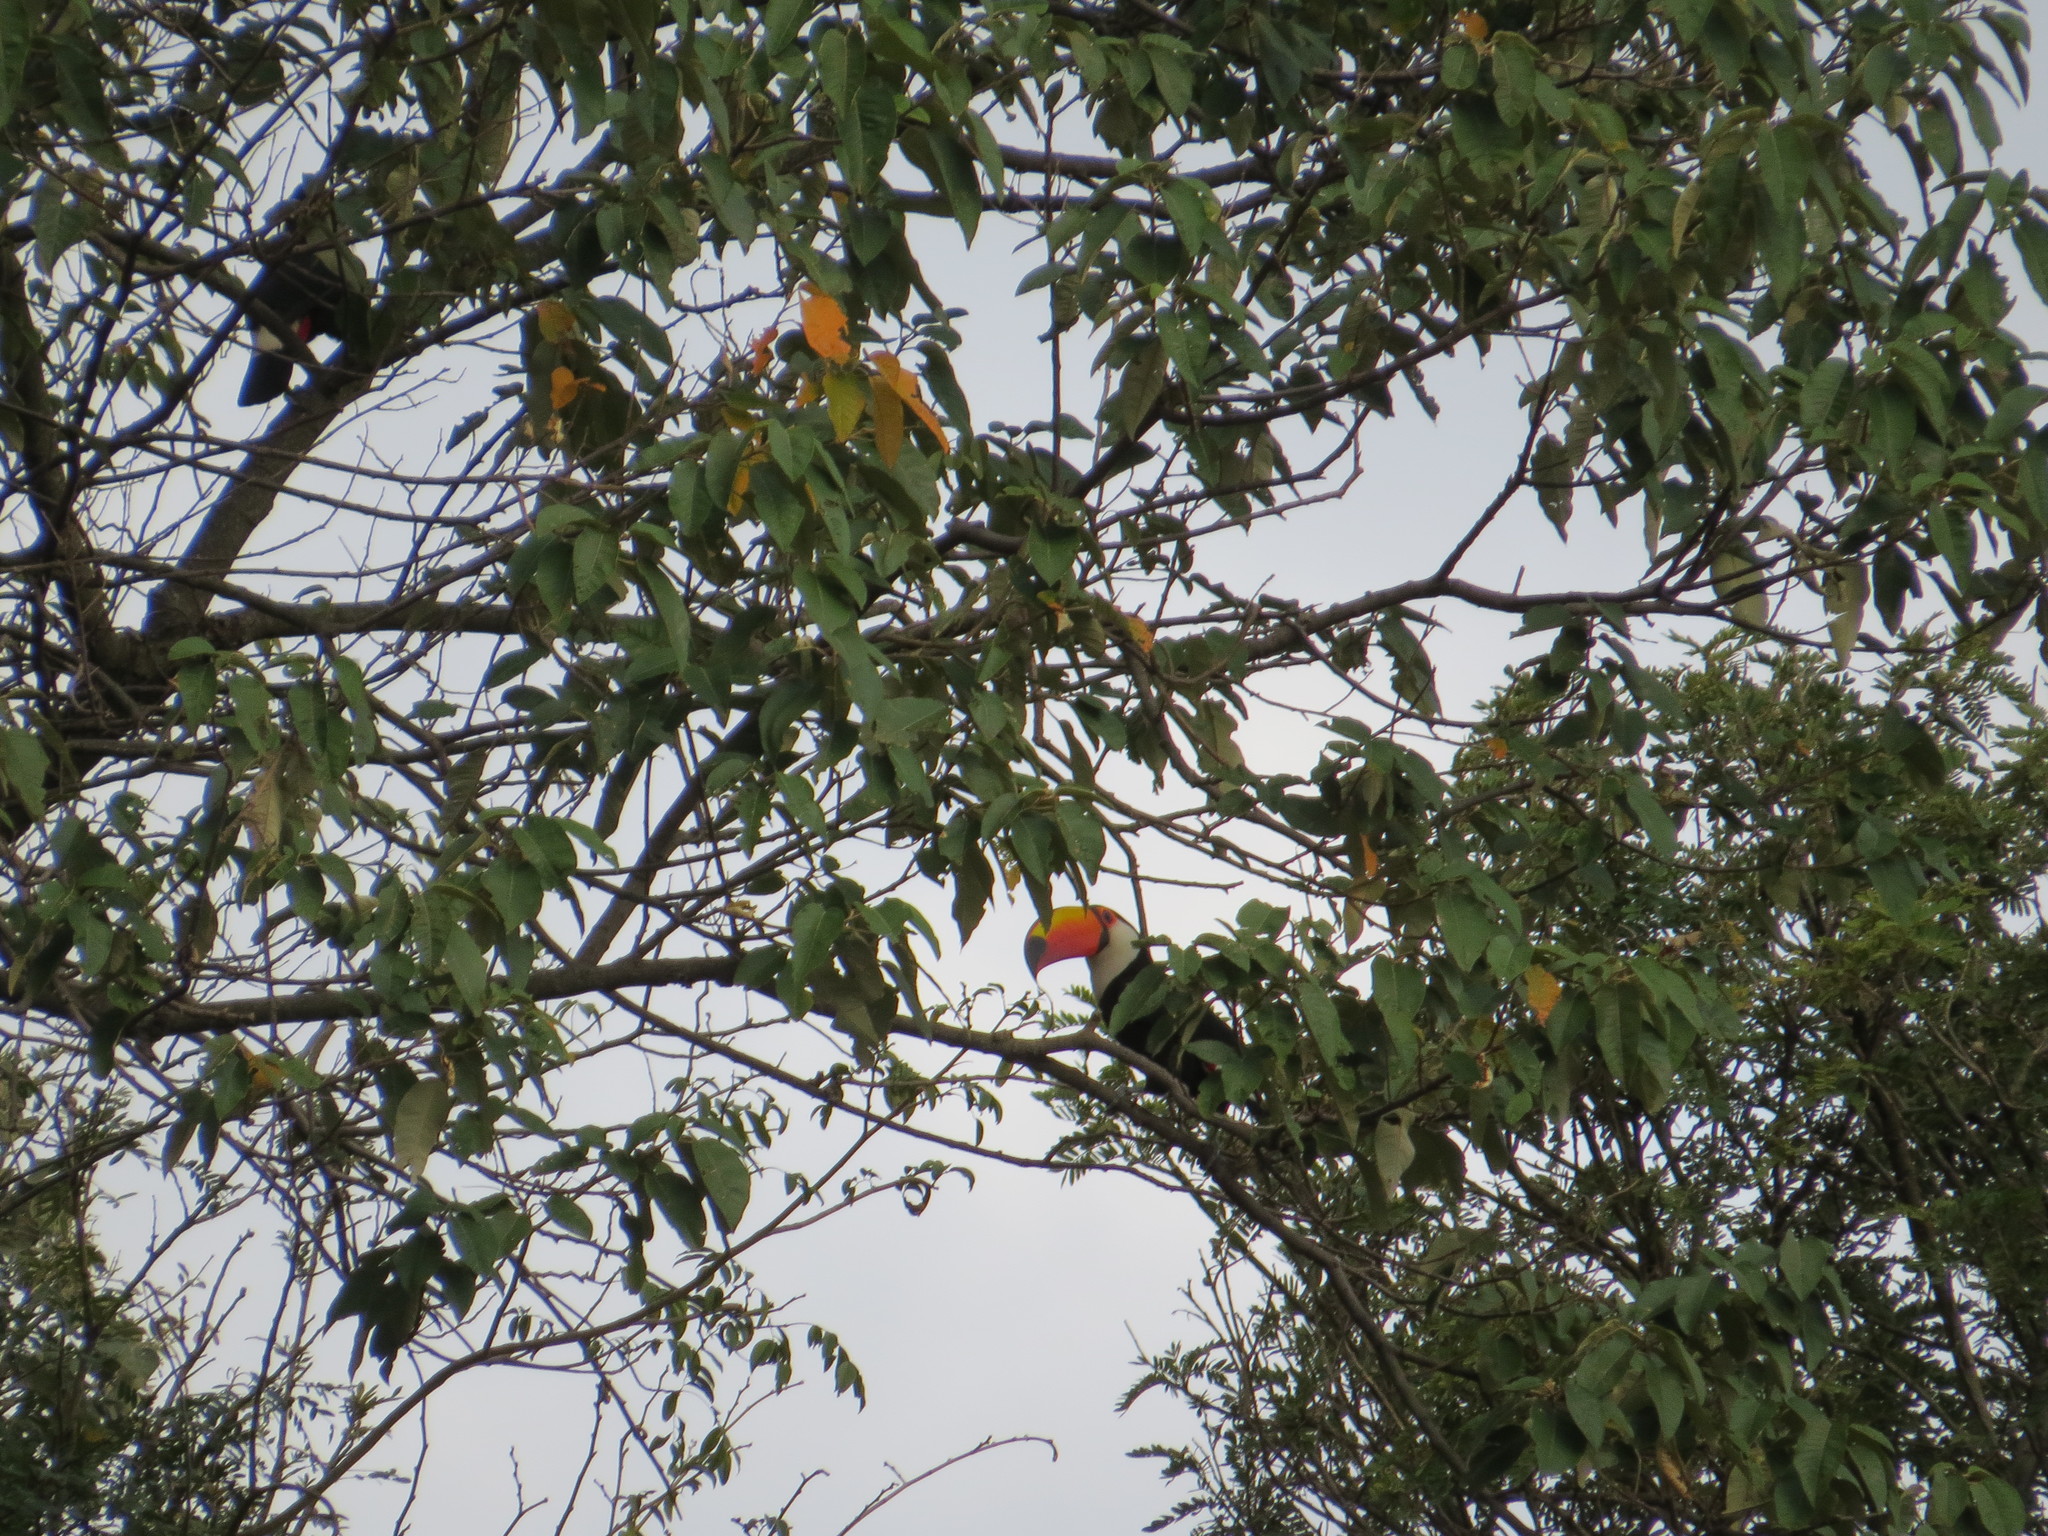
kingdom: Animalia
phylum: Chordata
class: Aves
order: Piciformes
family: Ramphastidae
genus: Ramphastos
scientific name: Ramphastos toco
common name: Toco toucan
